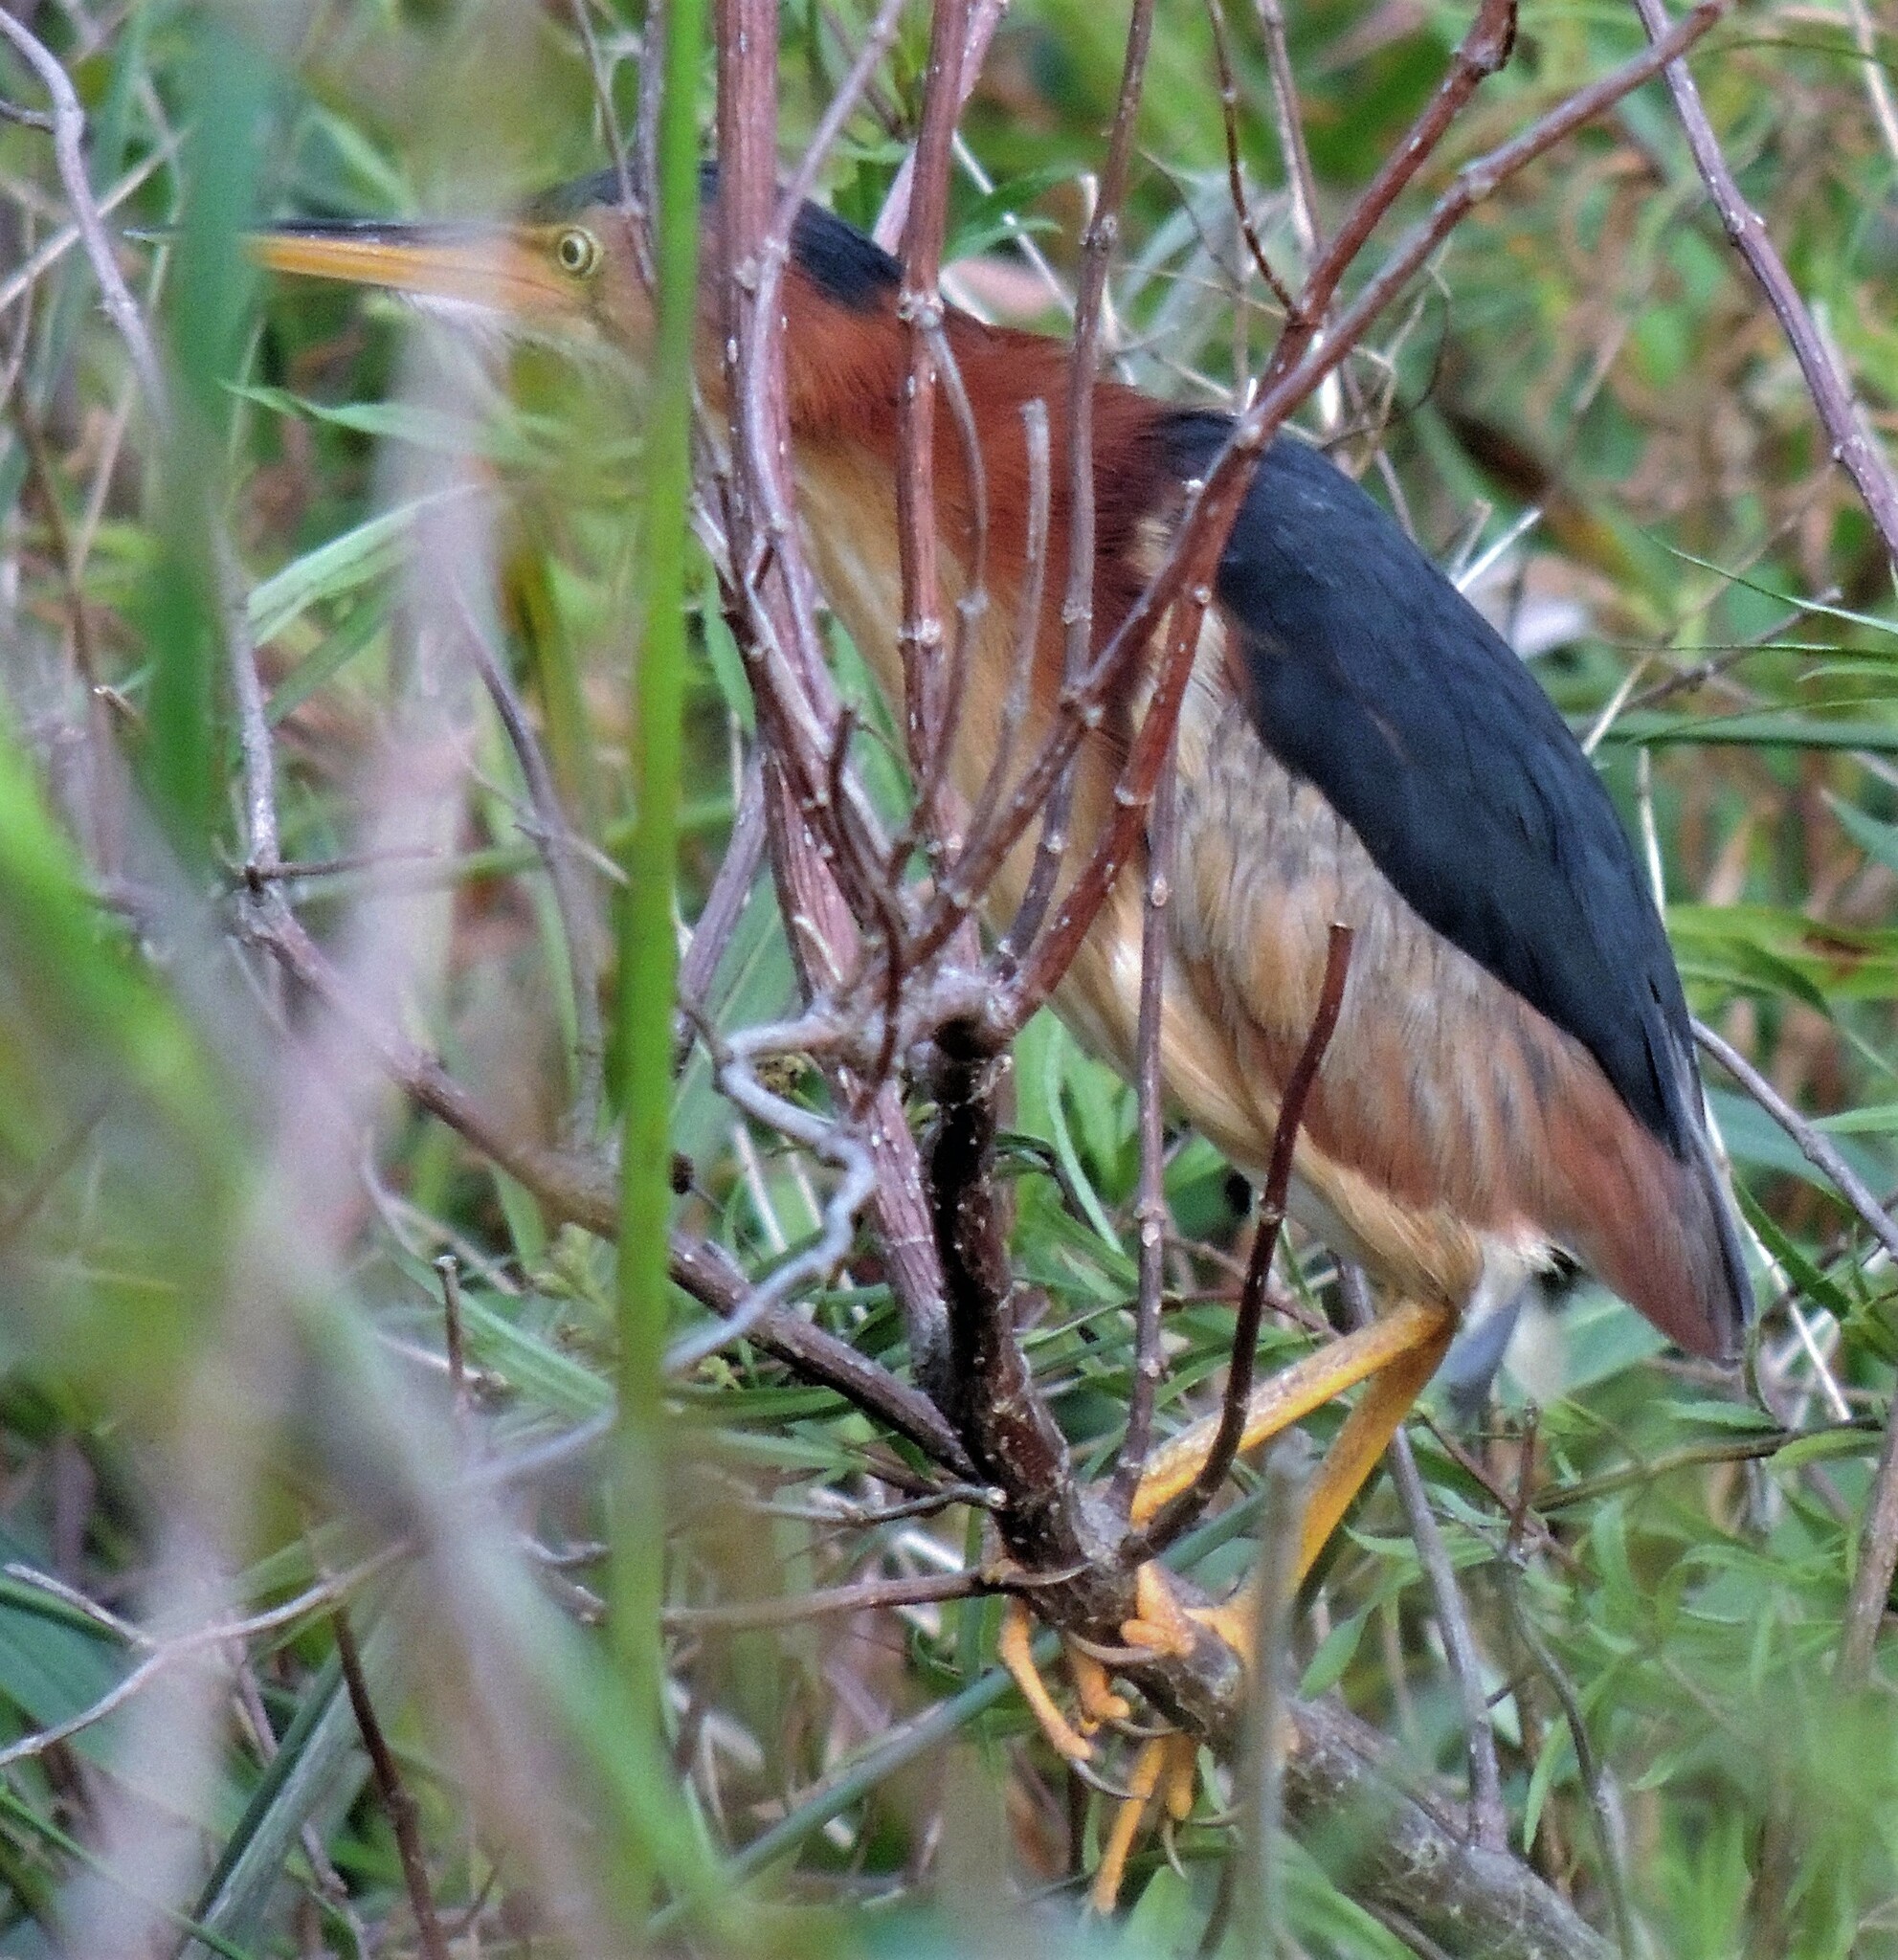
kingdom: Animalia
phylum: Chordata
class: Aves
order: Pelecaniformes
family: Ardeidae
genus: Ixobrychus
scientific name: Ixobrychus exilis
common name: Least bittern
